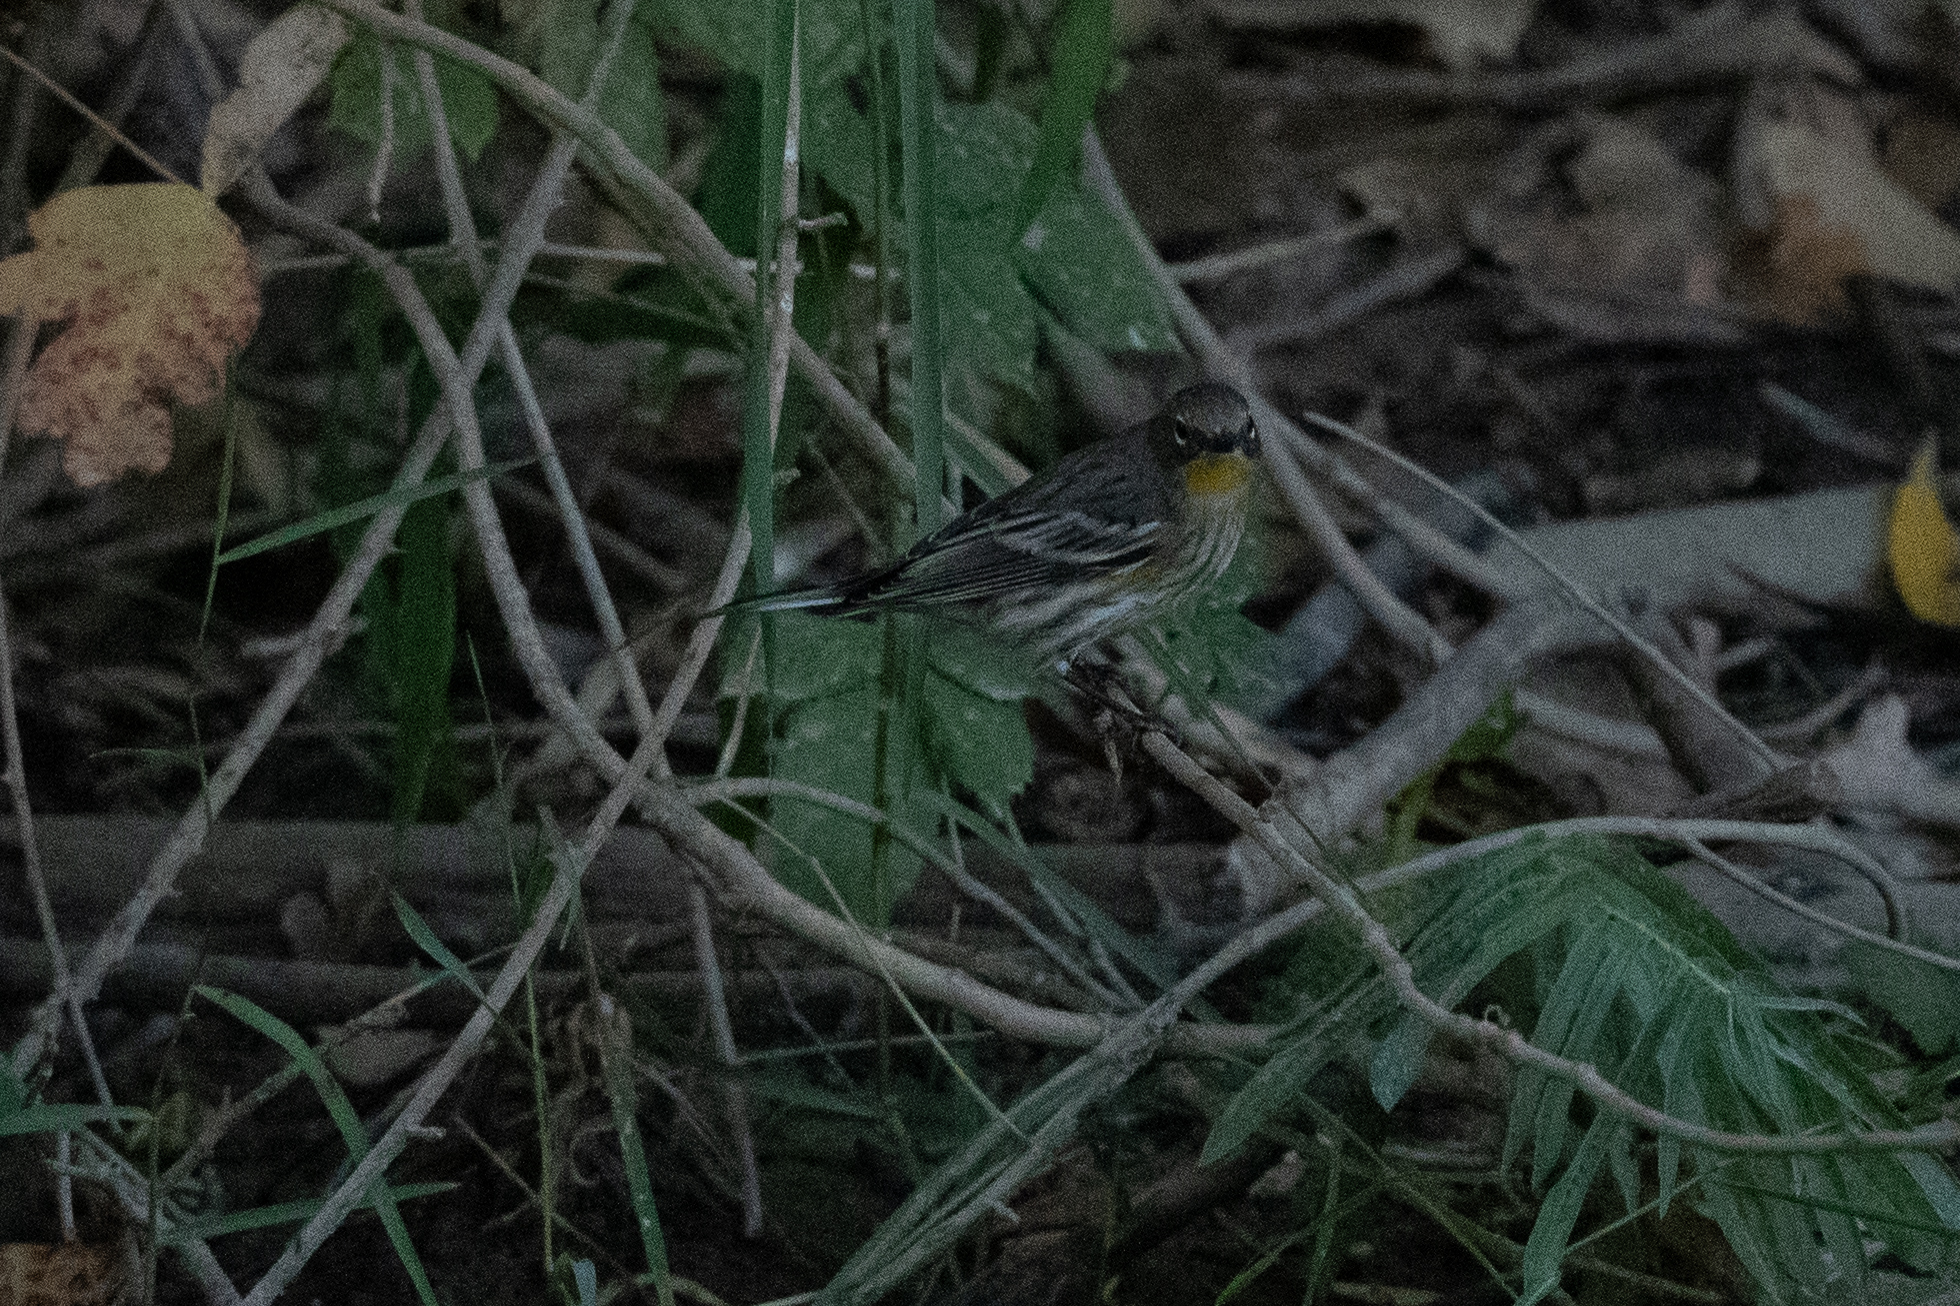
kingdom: Animalia
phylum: Chordata
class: Aves
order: Passeriformes
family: Parulidae
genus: Setophaga
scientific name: Setophaga coronata
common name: Myrtle warbler
